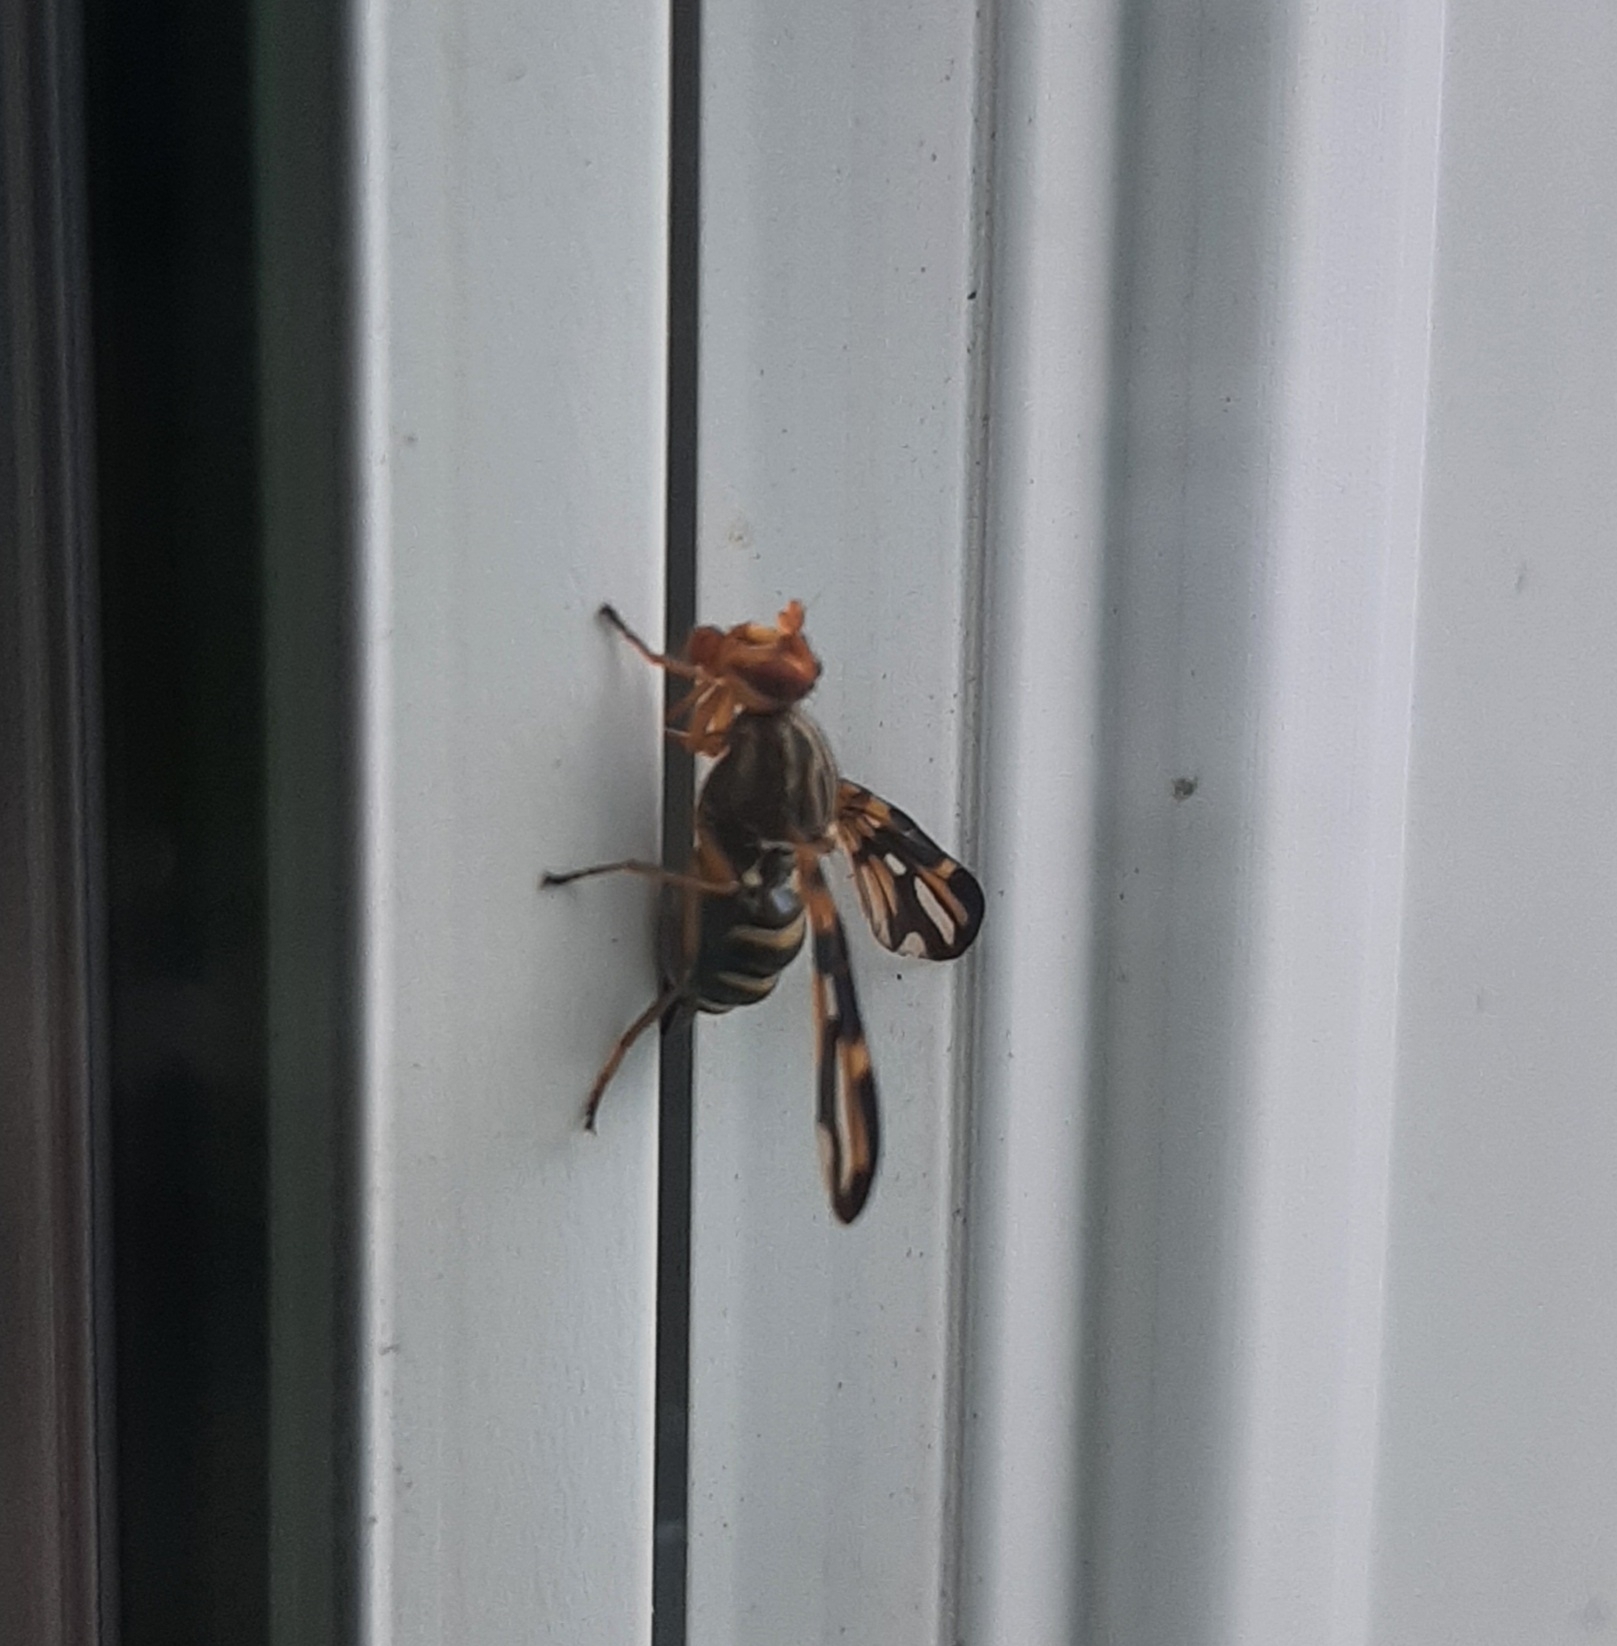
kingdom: Animalia
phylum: Arthropoda
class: Insecta
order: Diptera
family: Ulidiidae
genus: Idana
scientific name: Idana marginata
